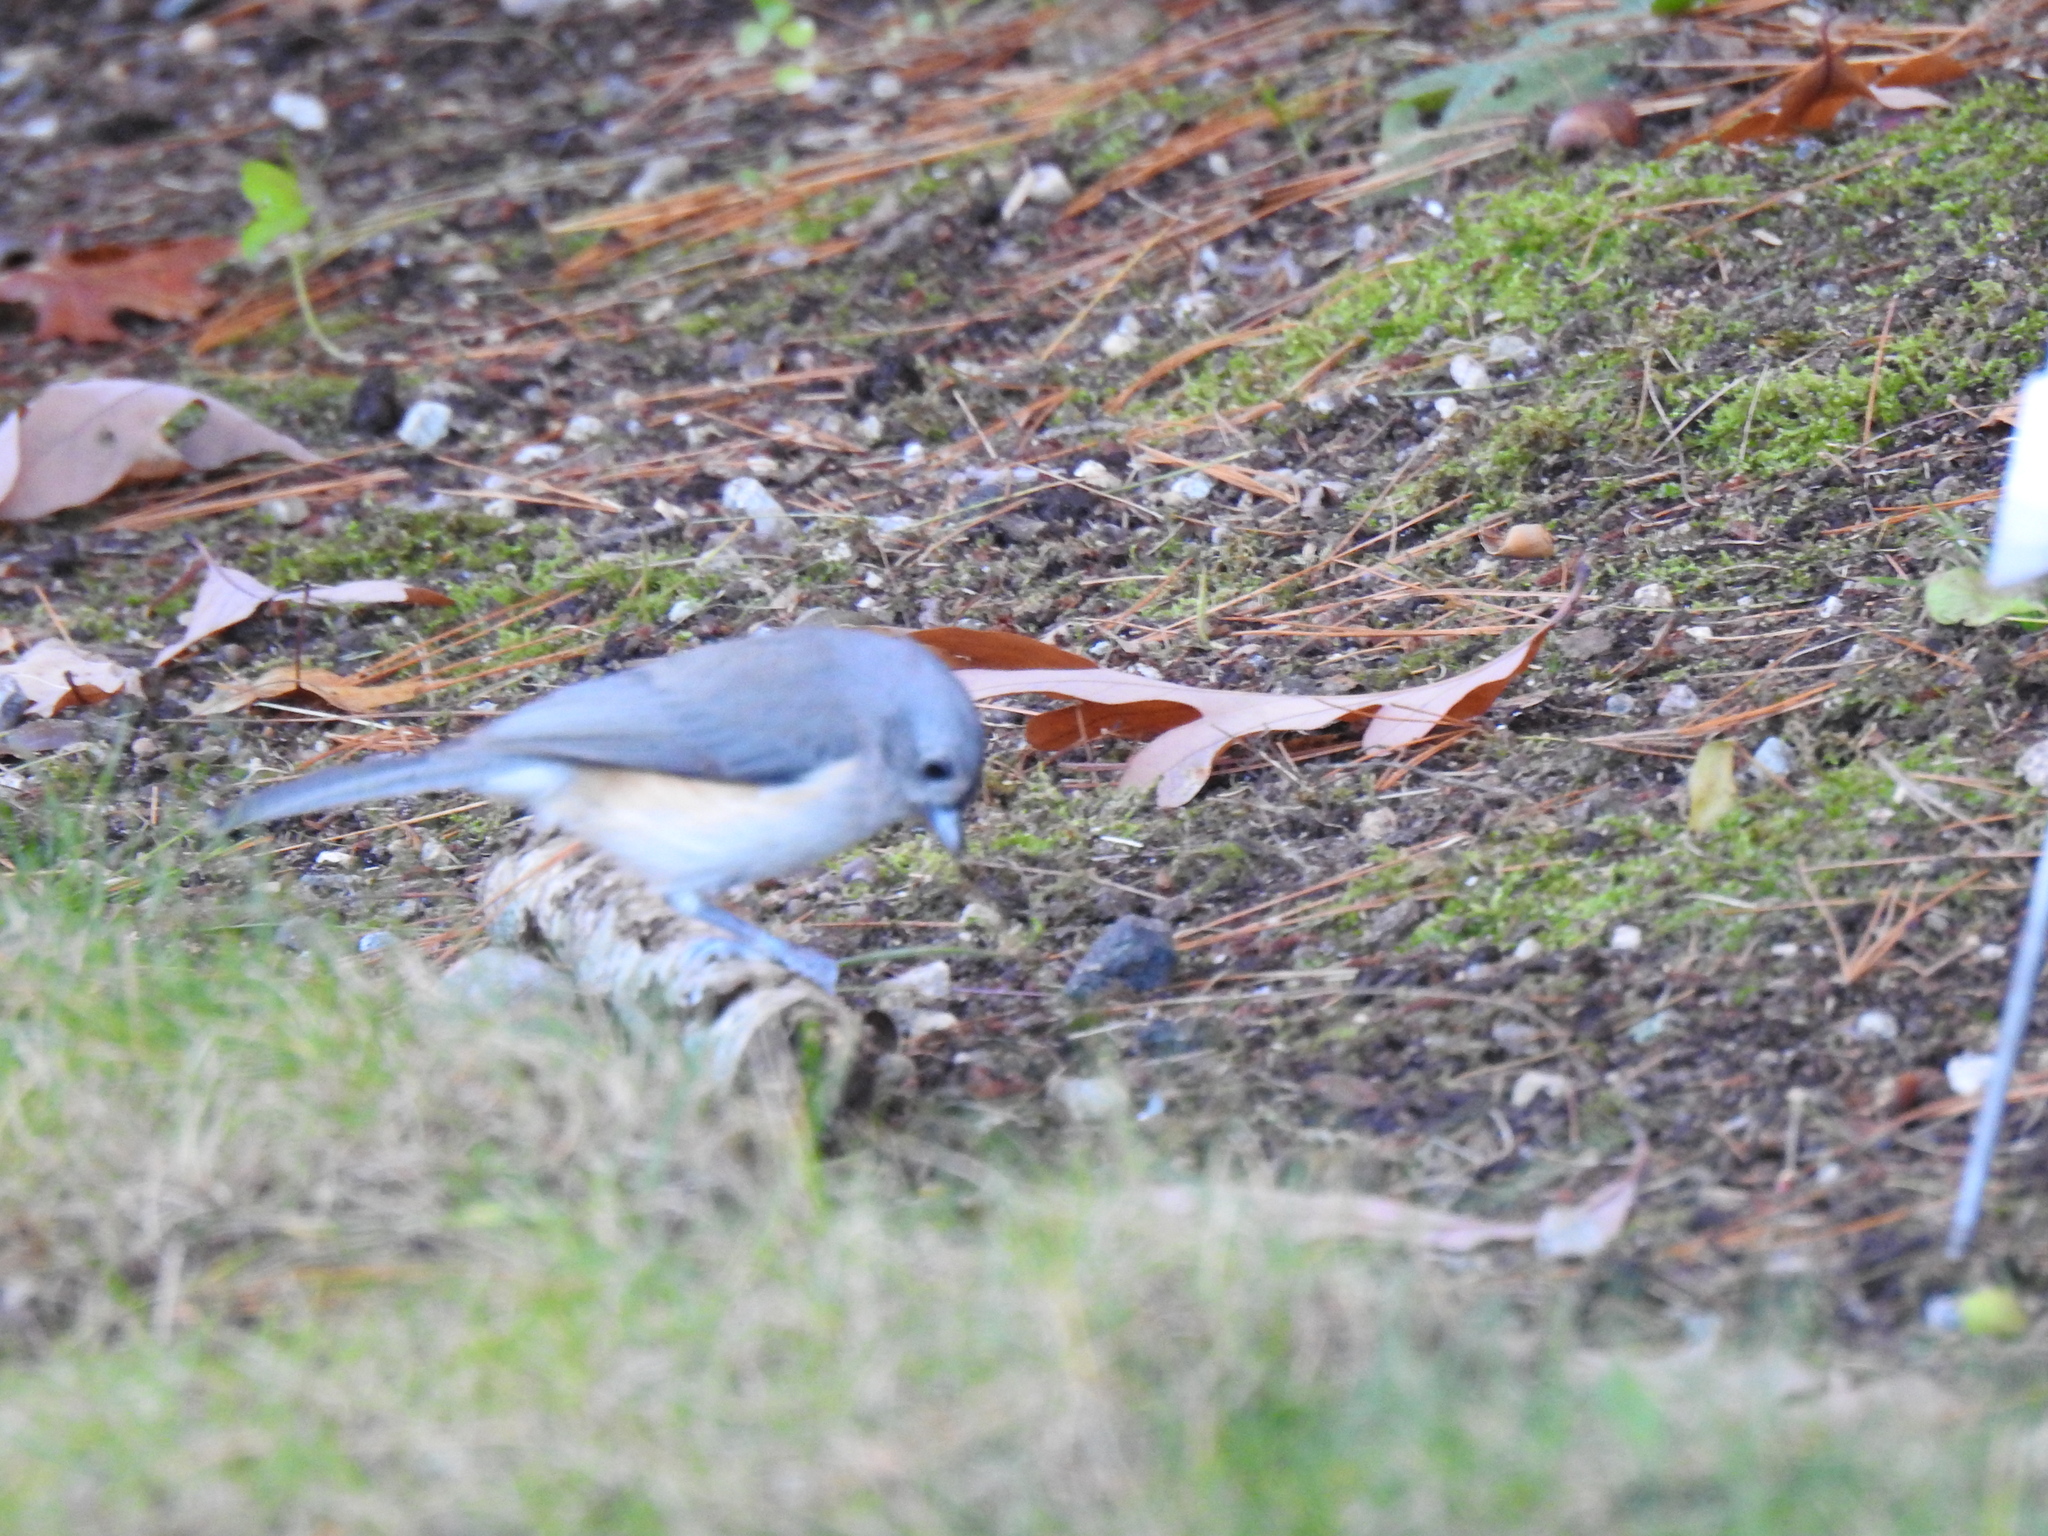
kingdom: Animalia
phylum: Chordata
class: Aves
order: Passeriformes
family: Paridae
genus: Baeolophus
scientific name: Baeolophus bicolor
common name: Tufted titmouse
